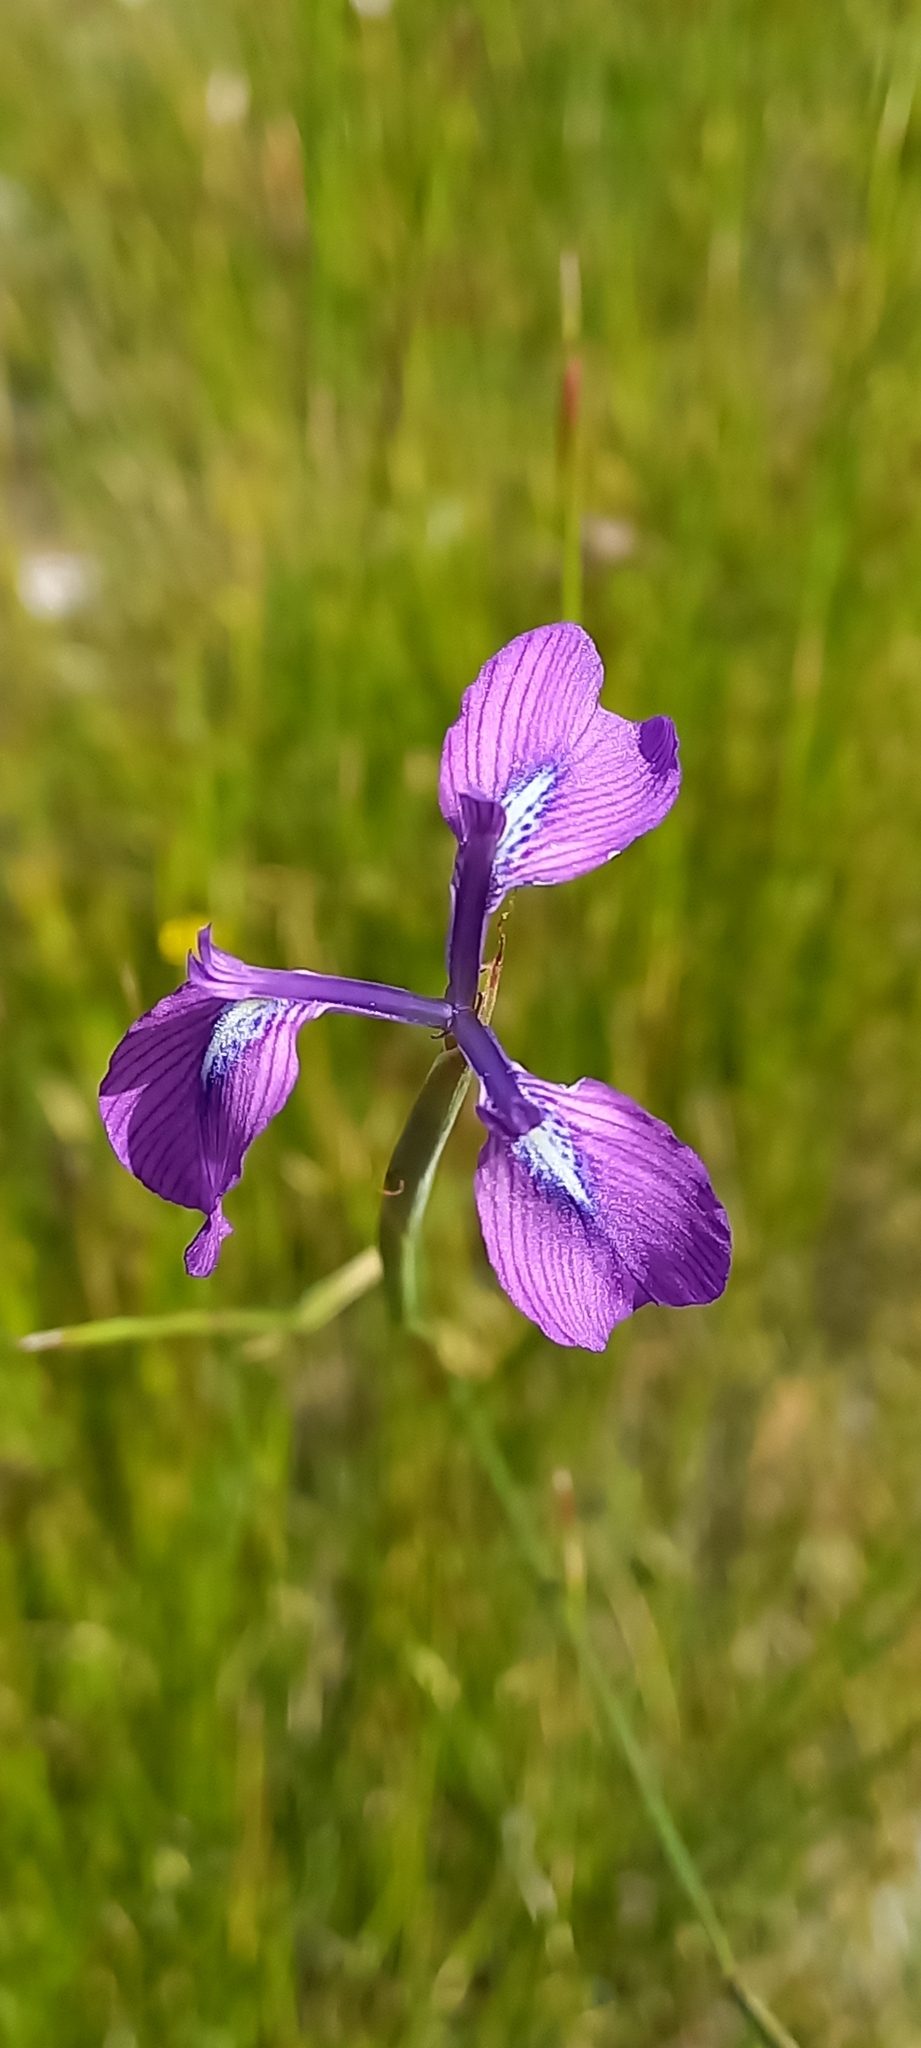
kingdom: Plantae
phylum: Tracheophyta
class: Liliopsida
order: Asparagales
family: Iridaceae
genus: Moraea
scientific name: Moraea tripetala
